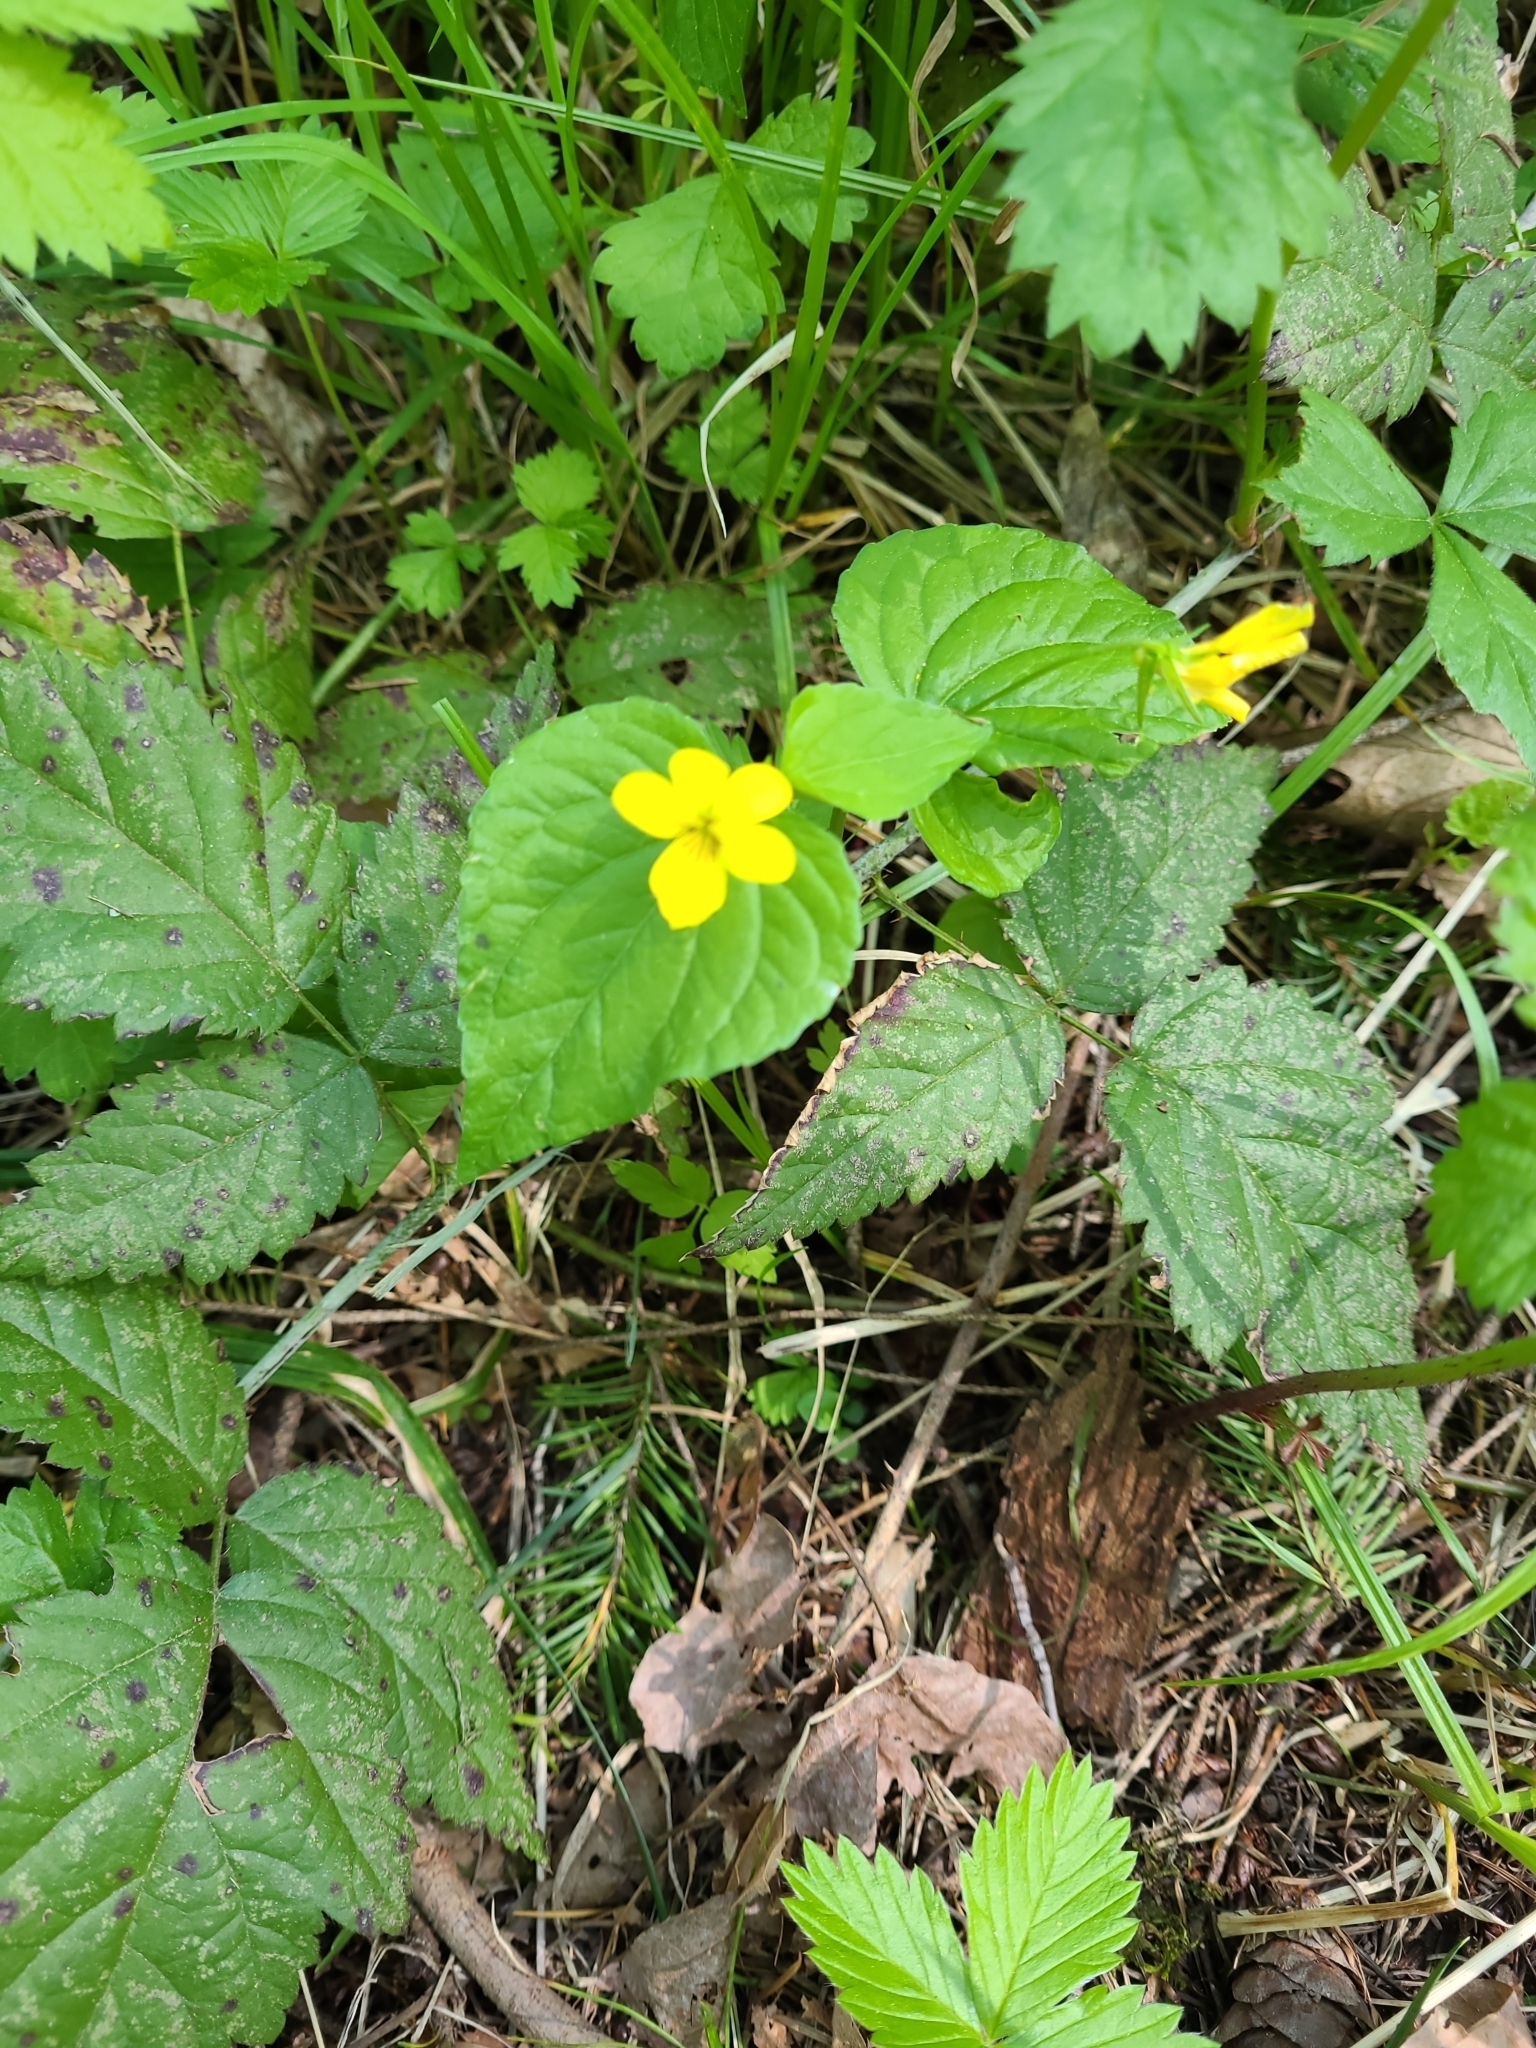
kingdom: Plantae
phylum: Tracheophyta
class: Magnoliopsida
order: Malpighiales
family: Violaceae
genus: Viola
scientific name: Viola glabella
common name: Stream violet
